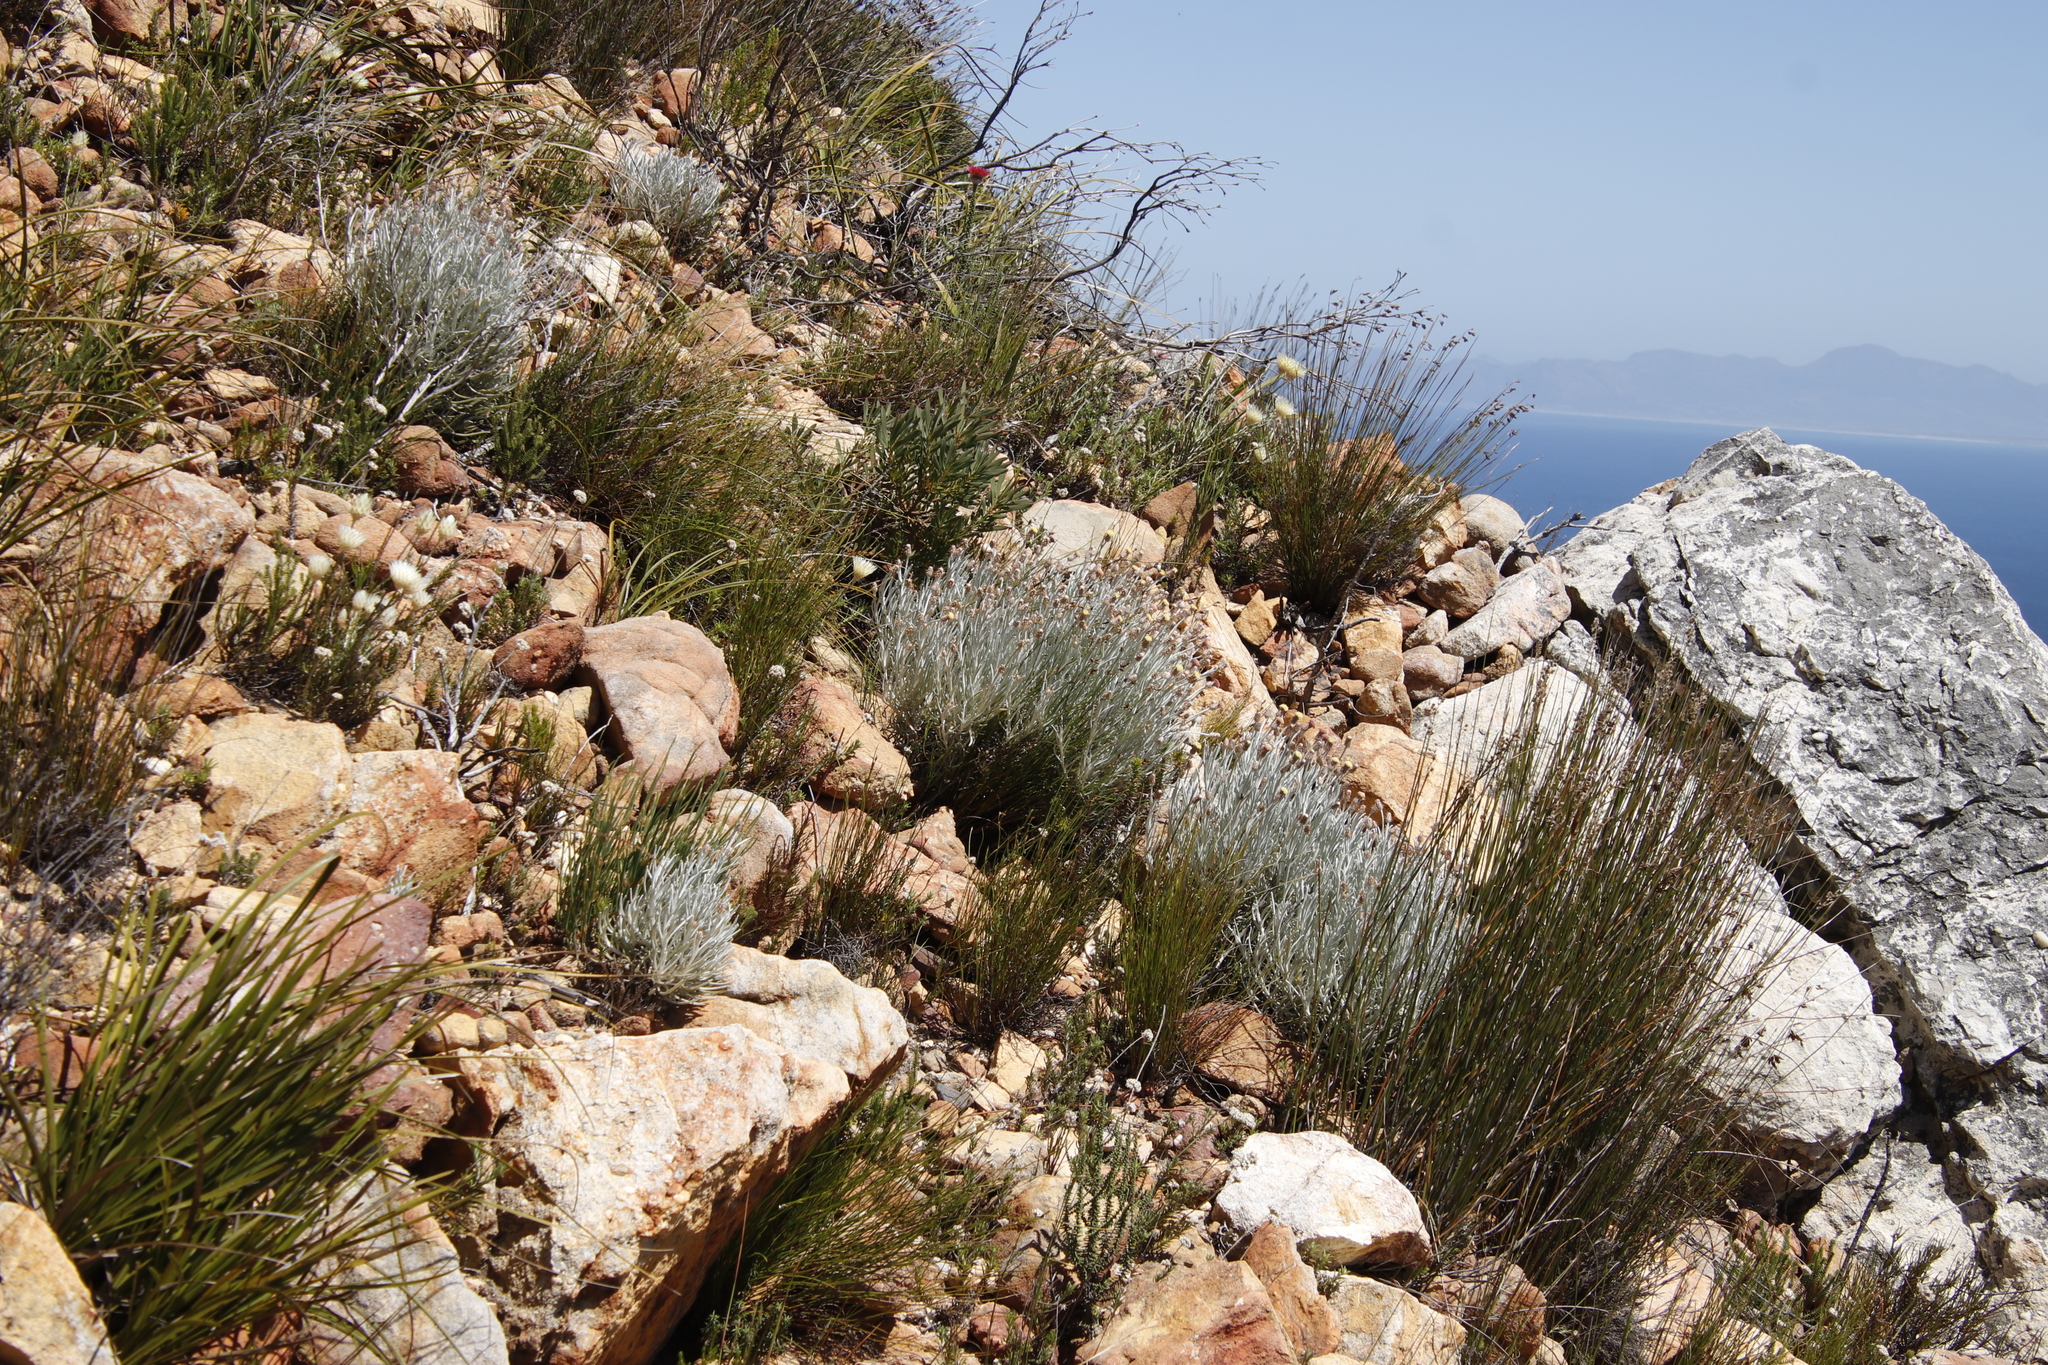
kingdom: Plantae
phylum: Tracheophyta
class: Magnoliopsida
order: Asterales
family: Asteraceae
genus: Syncarpha
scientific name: Syncarpha gnaphaloides
